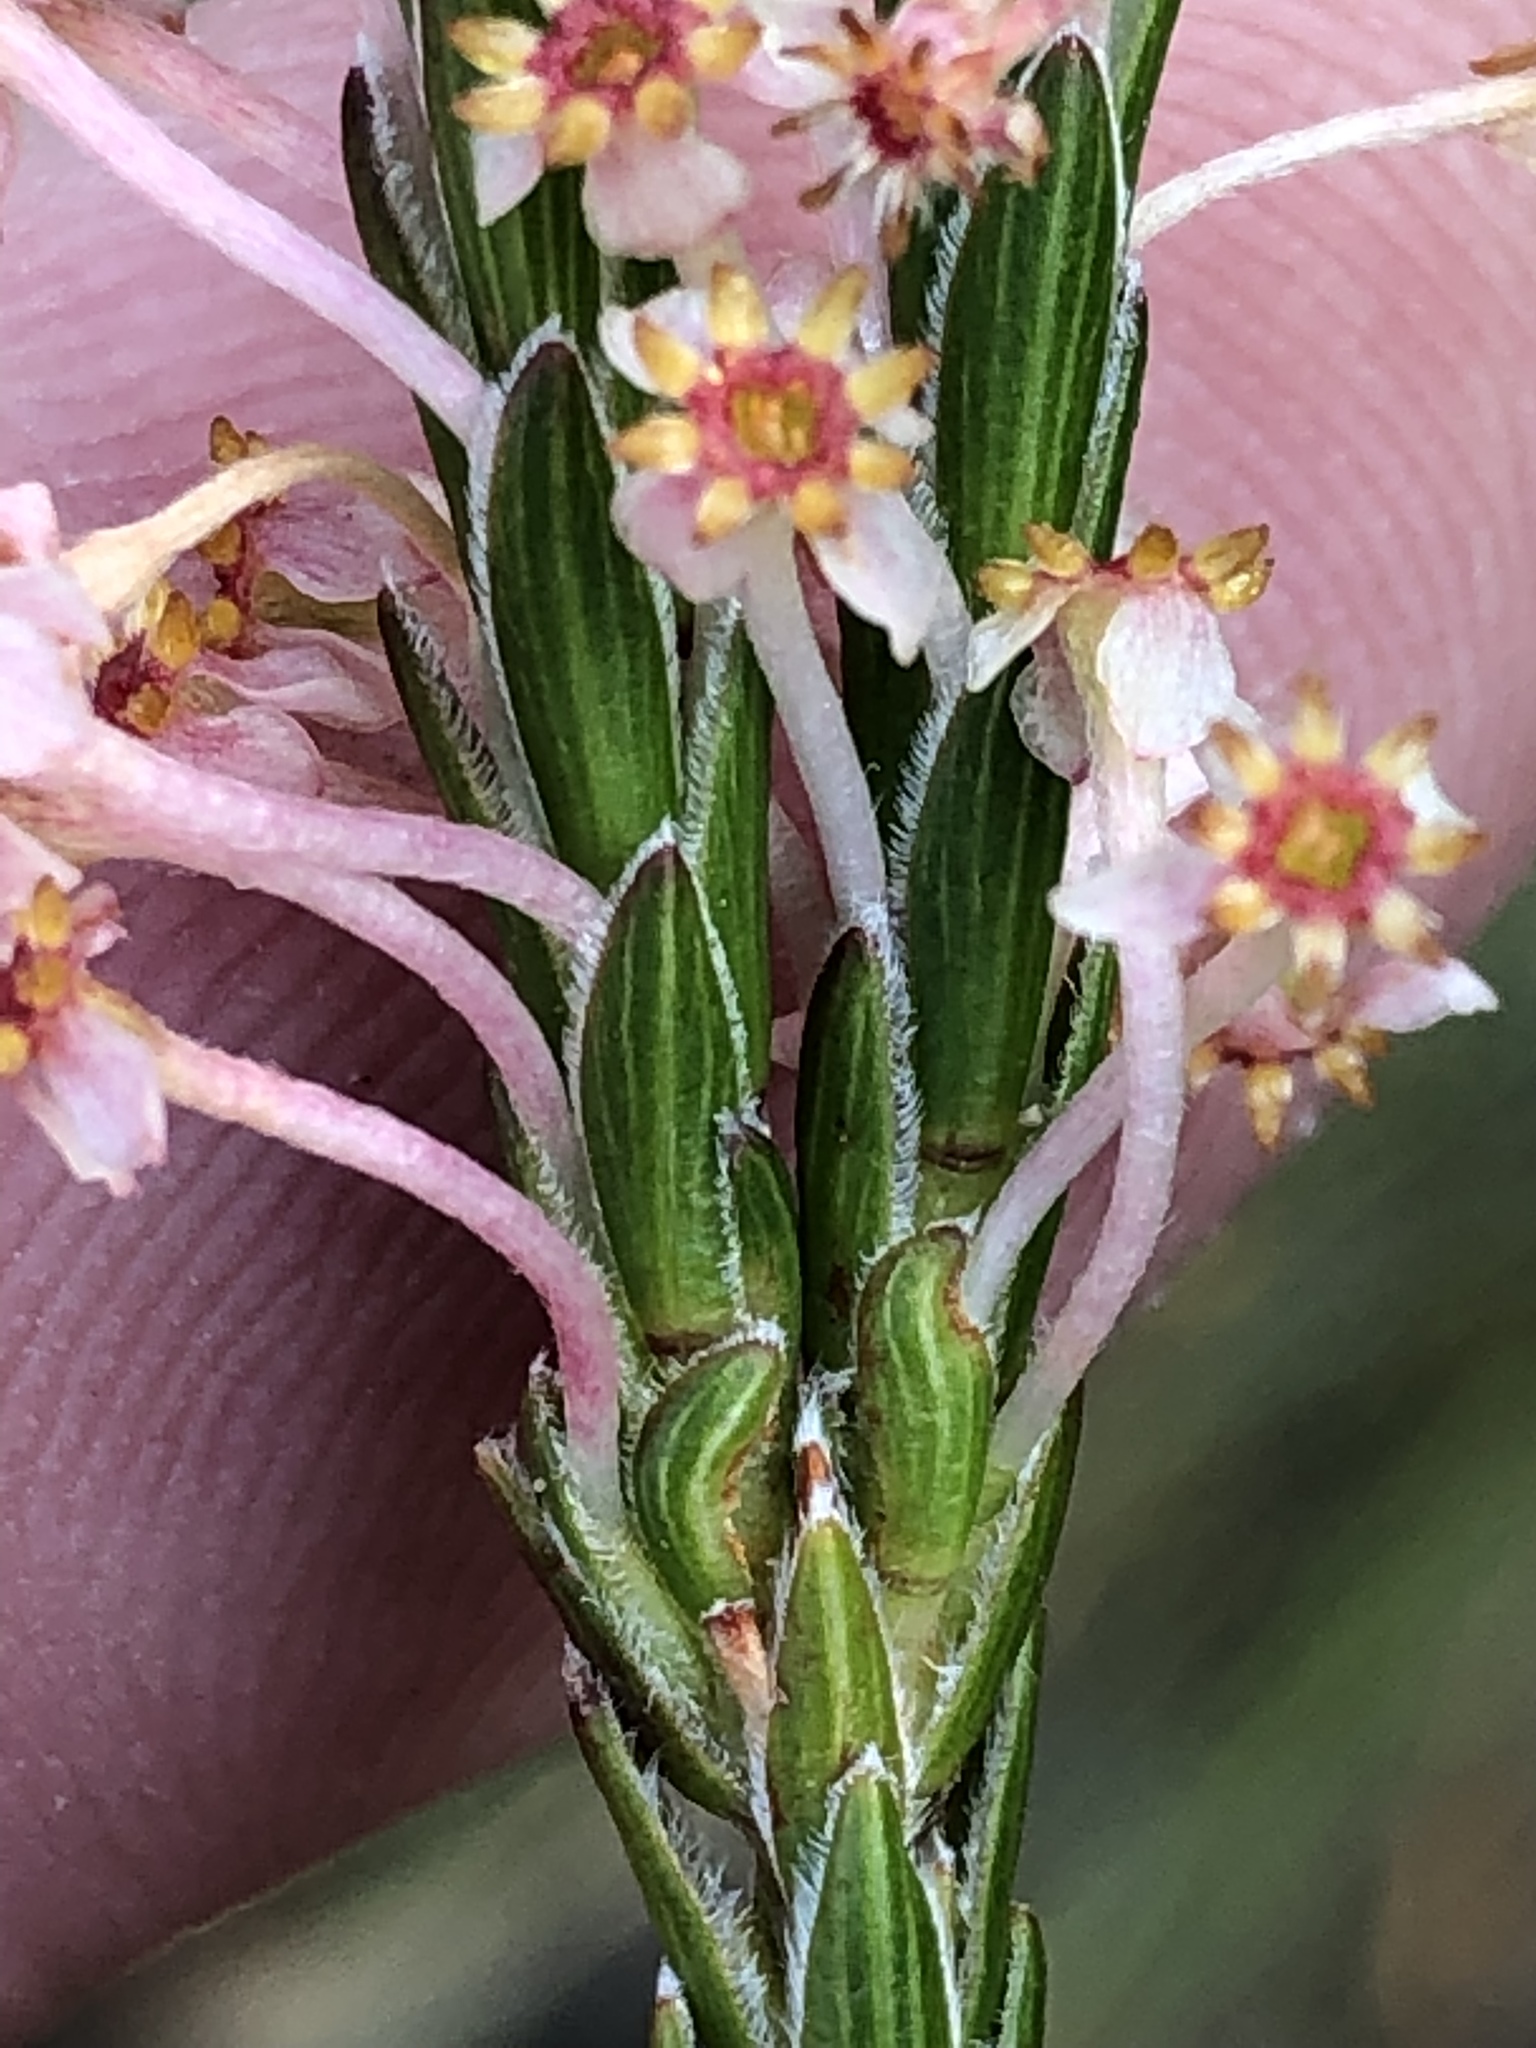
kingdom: Plantae
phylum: Tracheophyta
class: Magnoliopsida
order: Malvales
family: Thymelaeaceae
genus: Struthiola
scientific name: Struthiola ciliata
